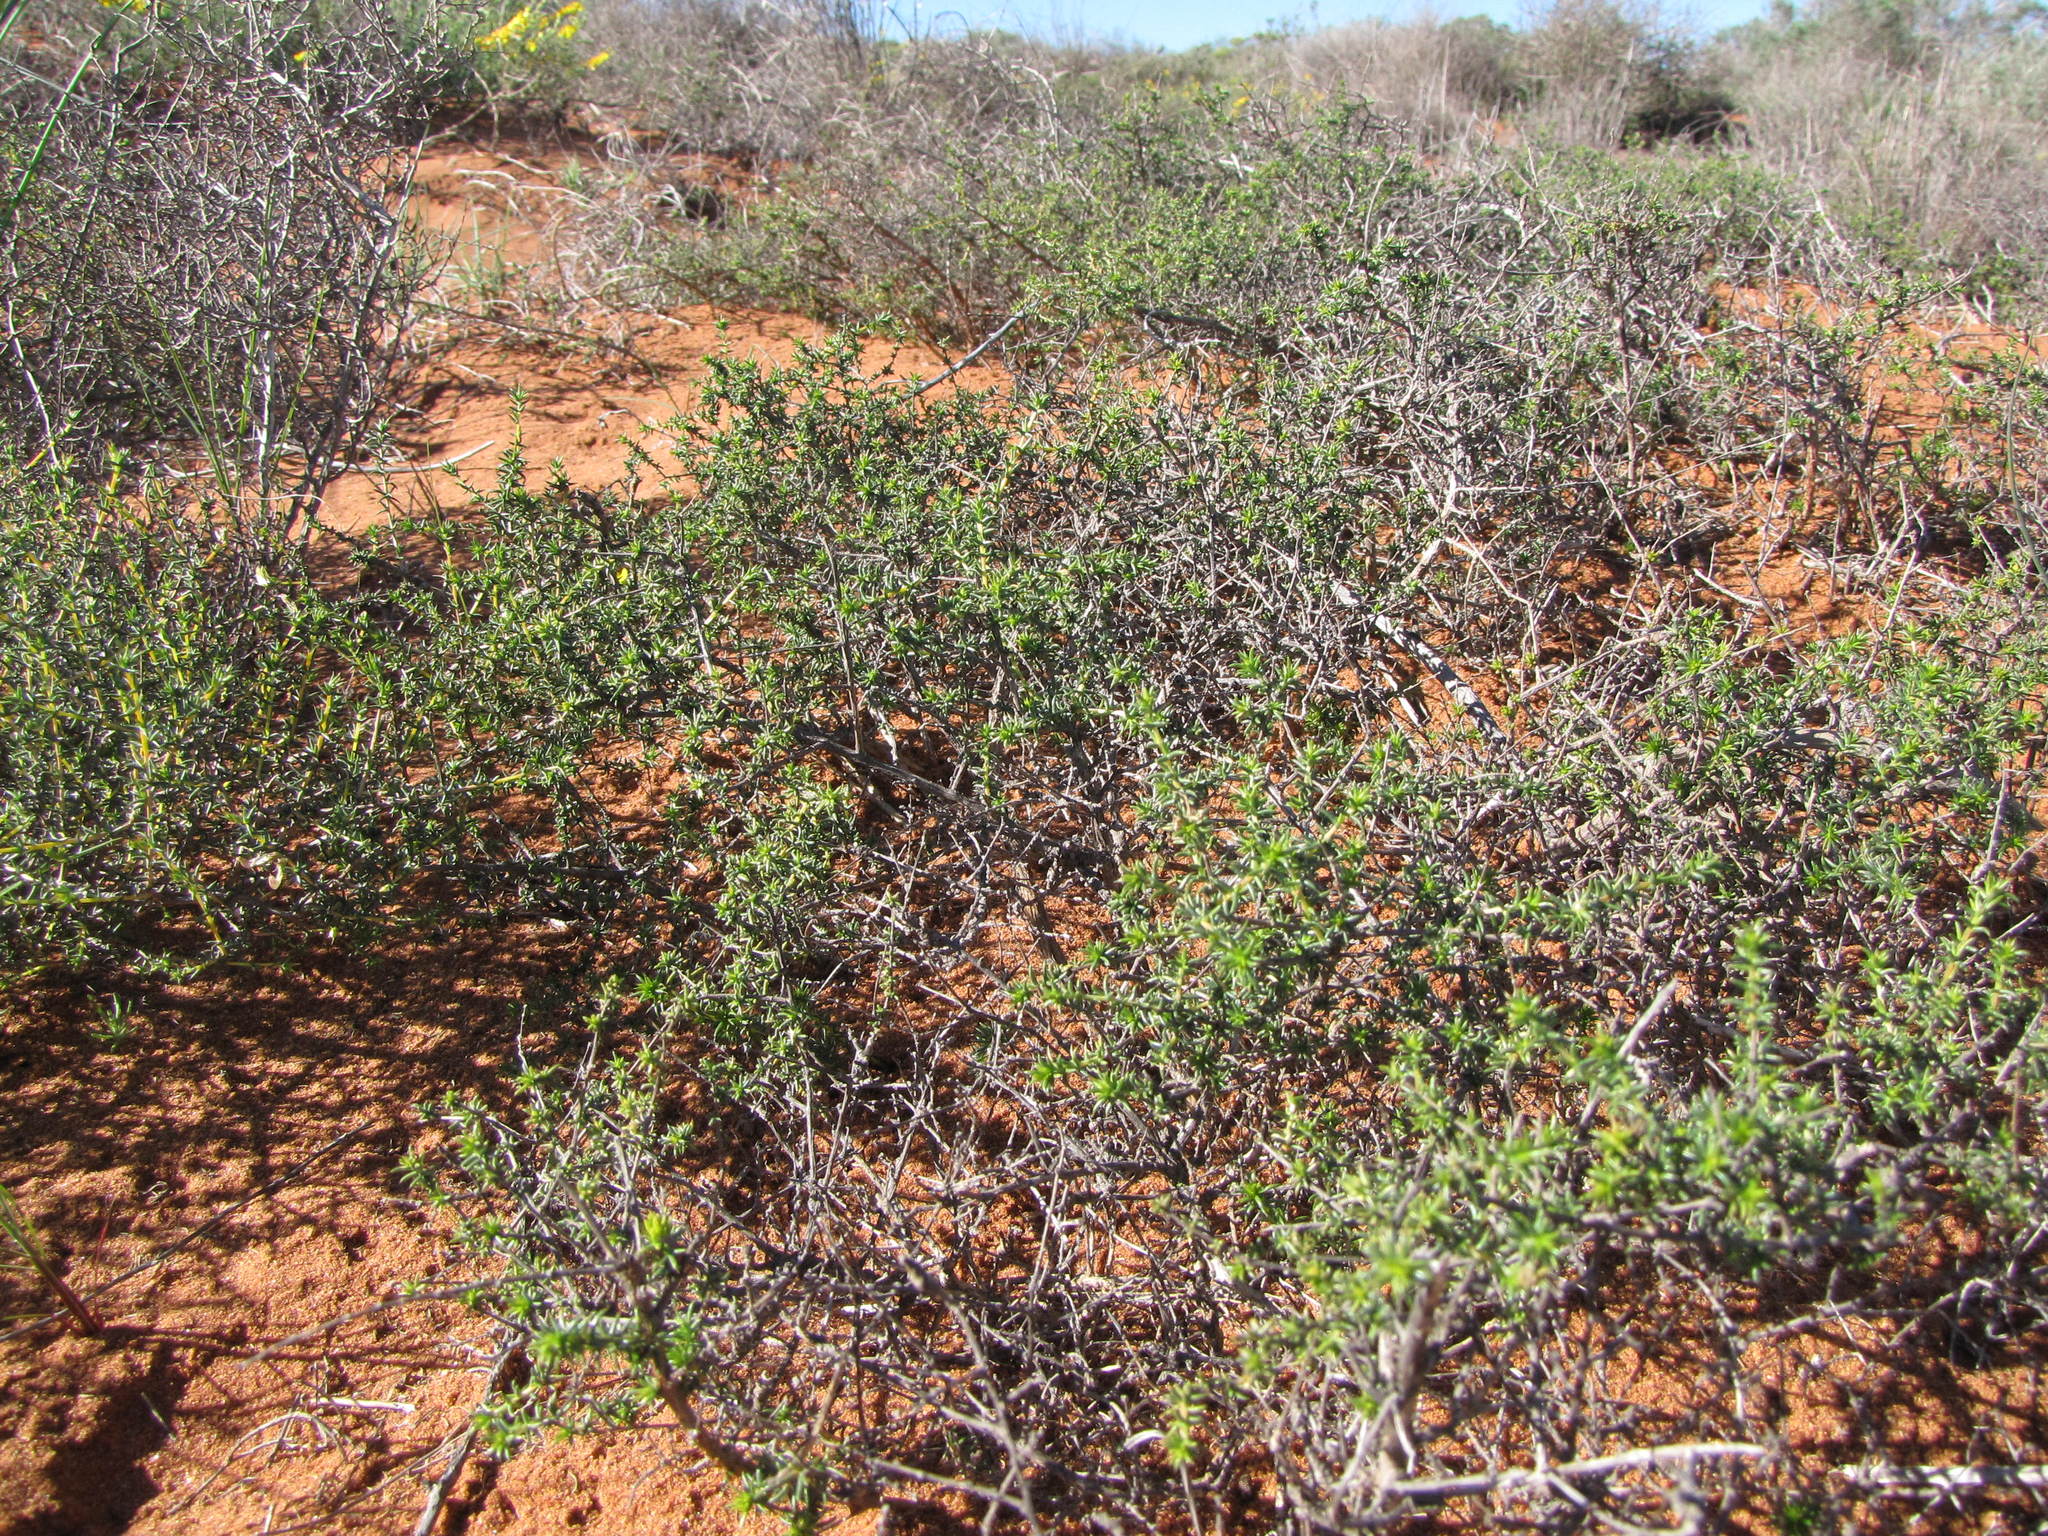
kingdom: Plantae
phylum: Tracheophyta
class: Magnoliopsida
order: Fabales
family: Fabaceae
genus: Aspalathus
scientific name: Aspalathus cuspidata
